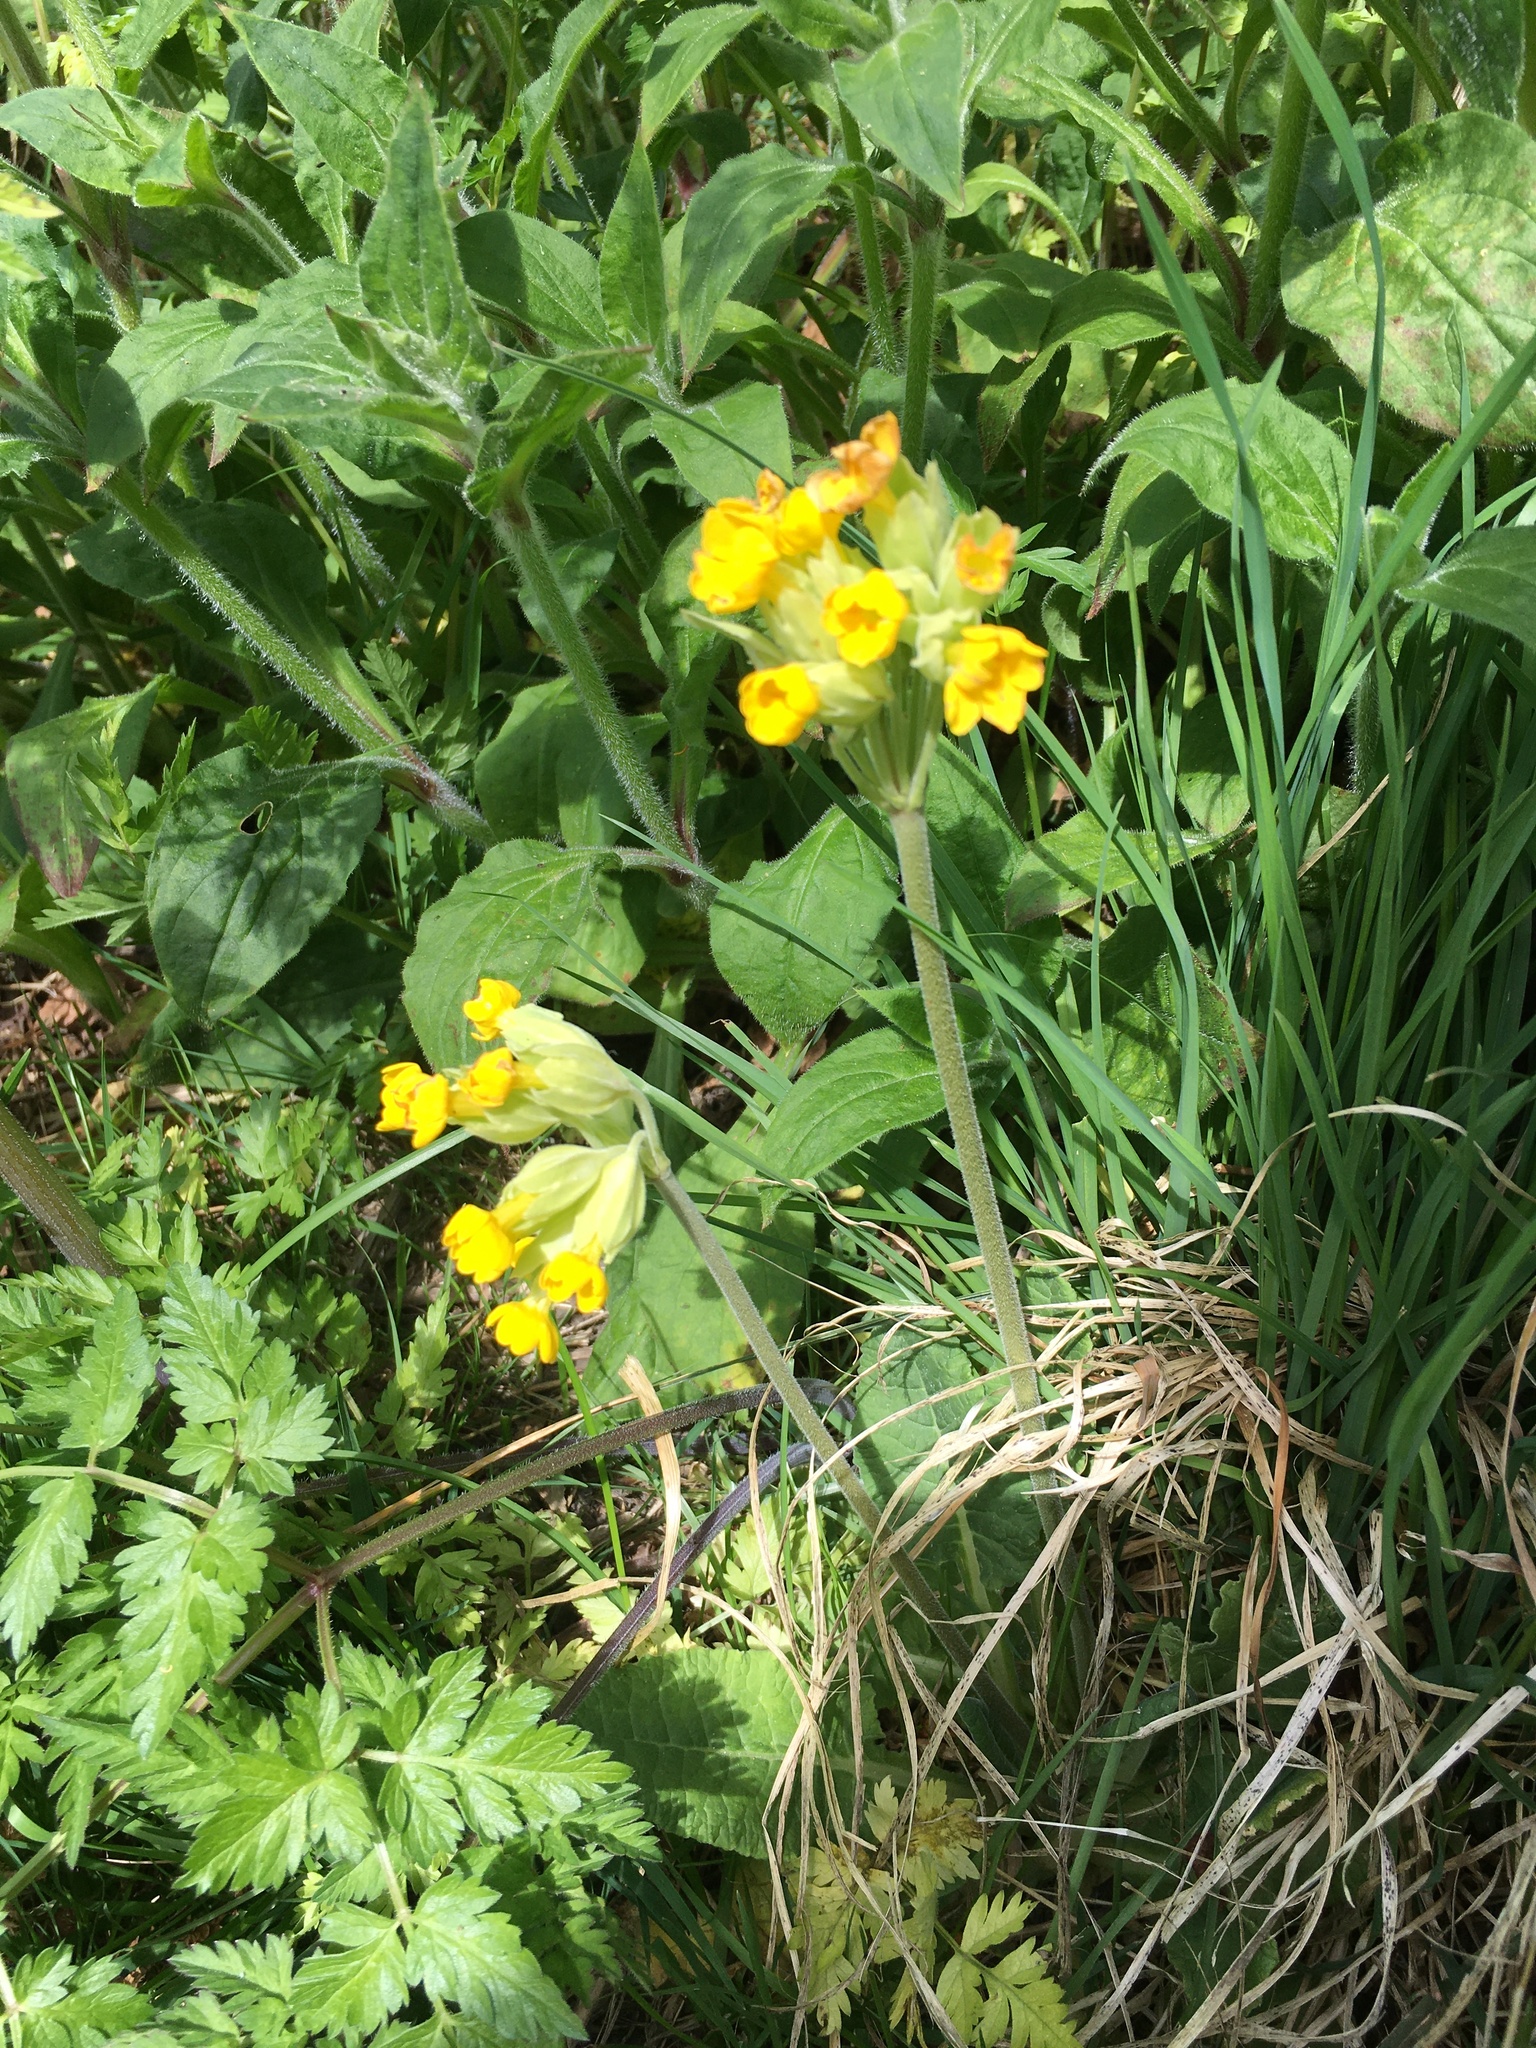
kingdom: Plantae
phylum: Tracheophyta
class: Magnoliopsida
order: Ericales
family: Primulaceae
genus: Primula
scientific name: Primula veris
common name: Cowslip
